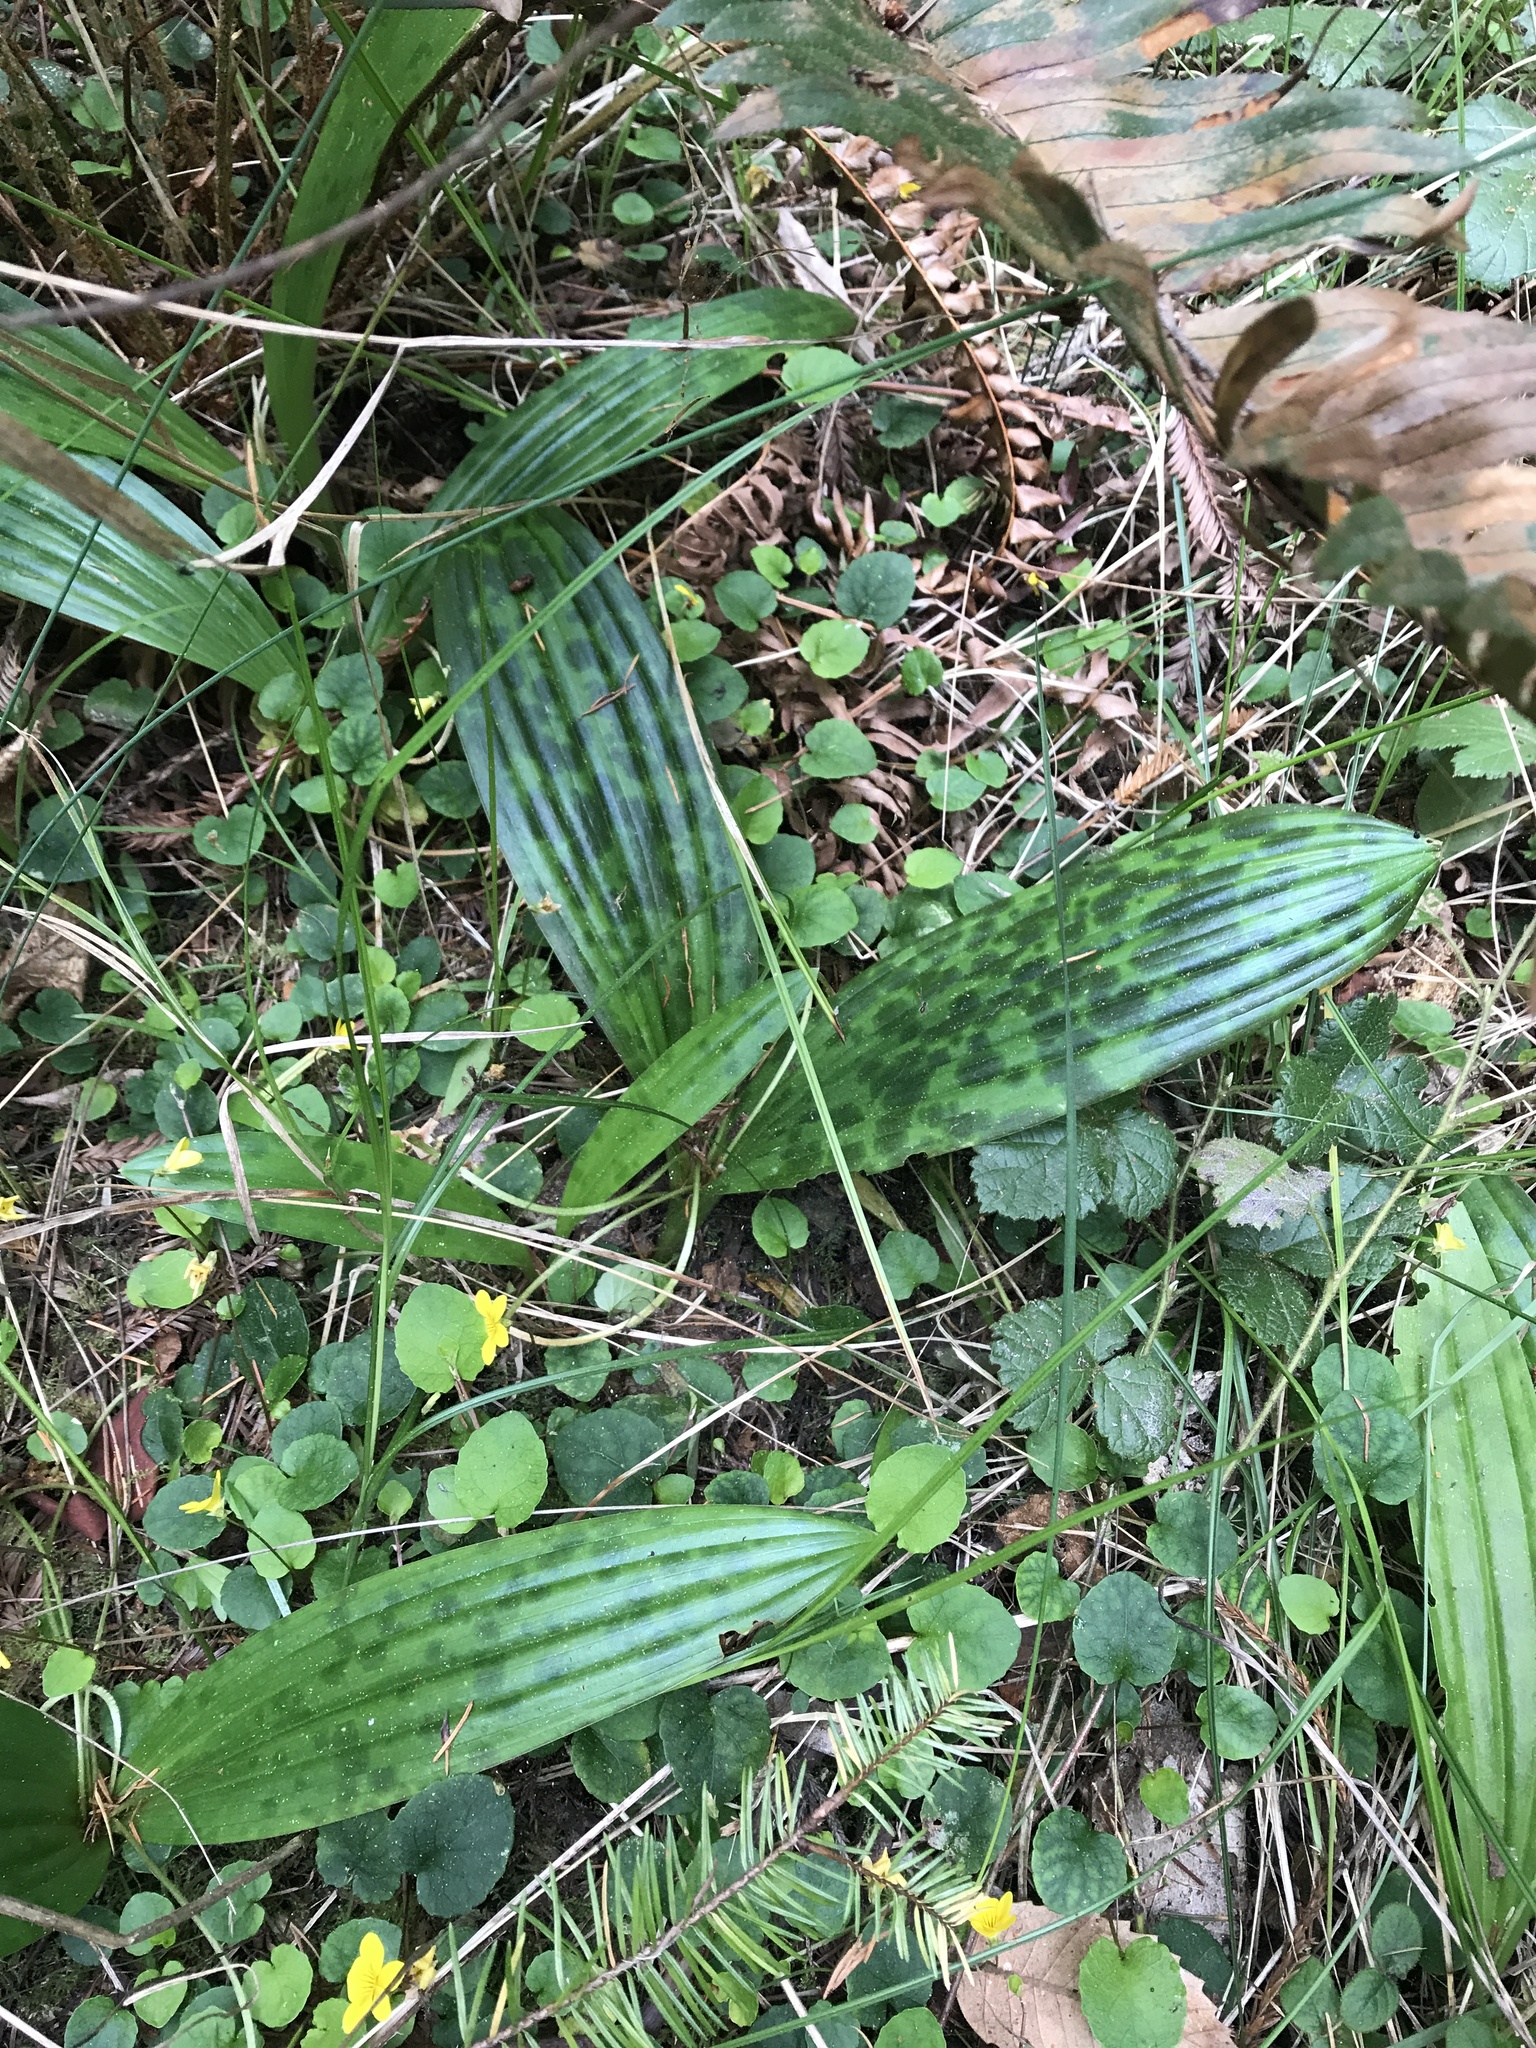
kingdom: Plantae
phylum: Tracheophyta
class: Liliopsida
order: Liliales
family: Liliaceae
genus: Scoliopus
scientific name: Scoliopus bigelovii
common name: Foetid adder's-tongue
